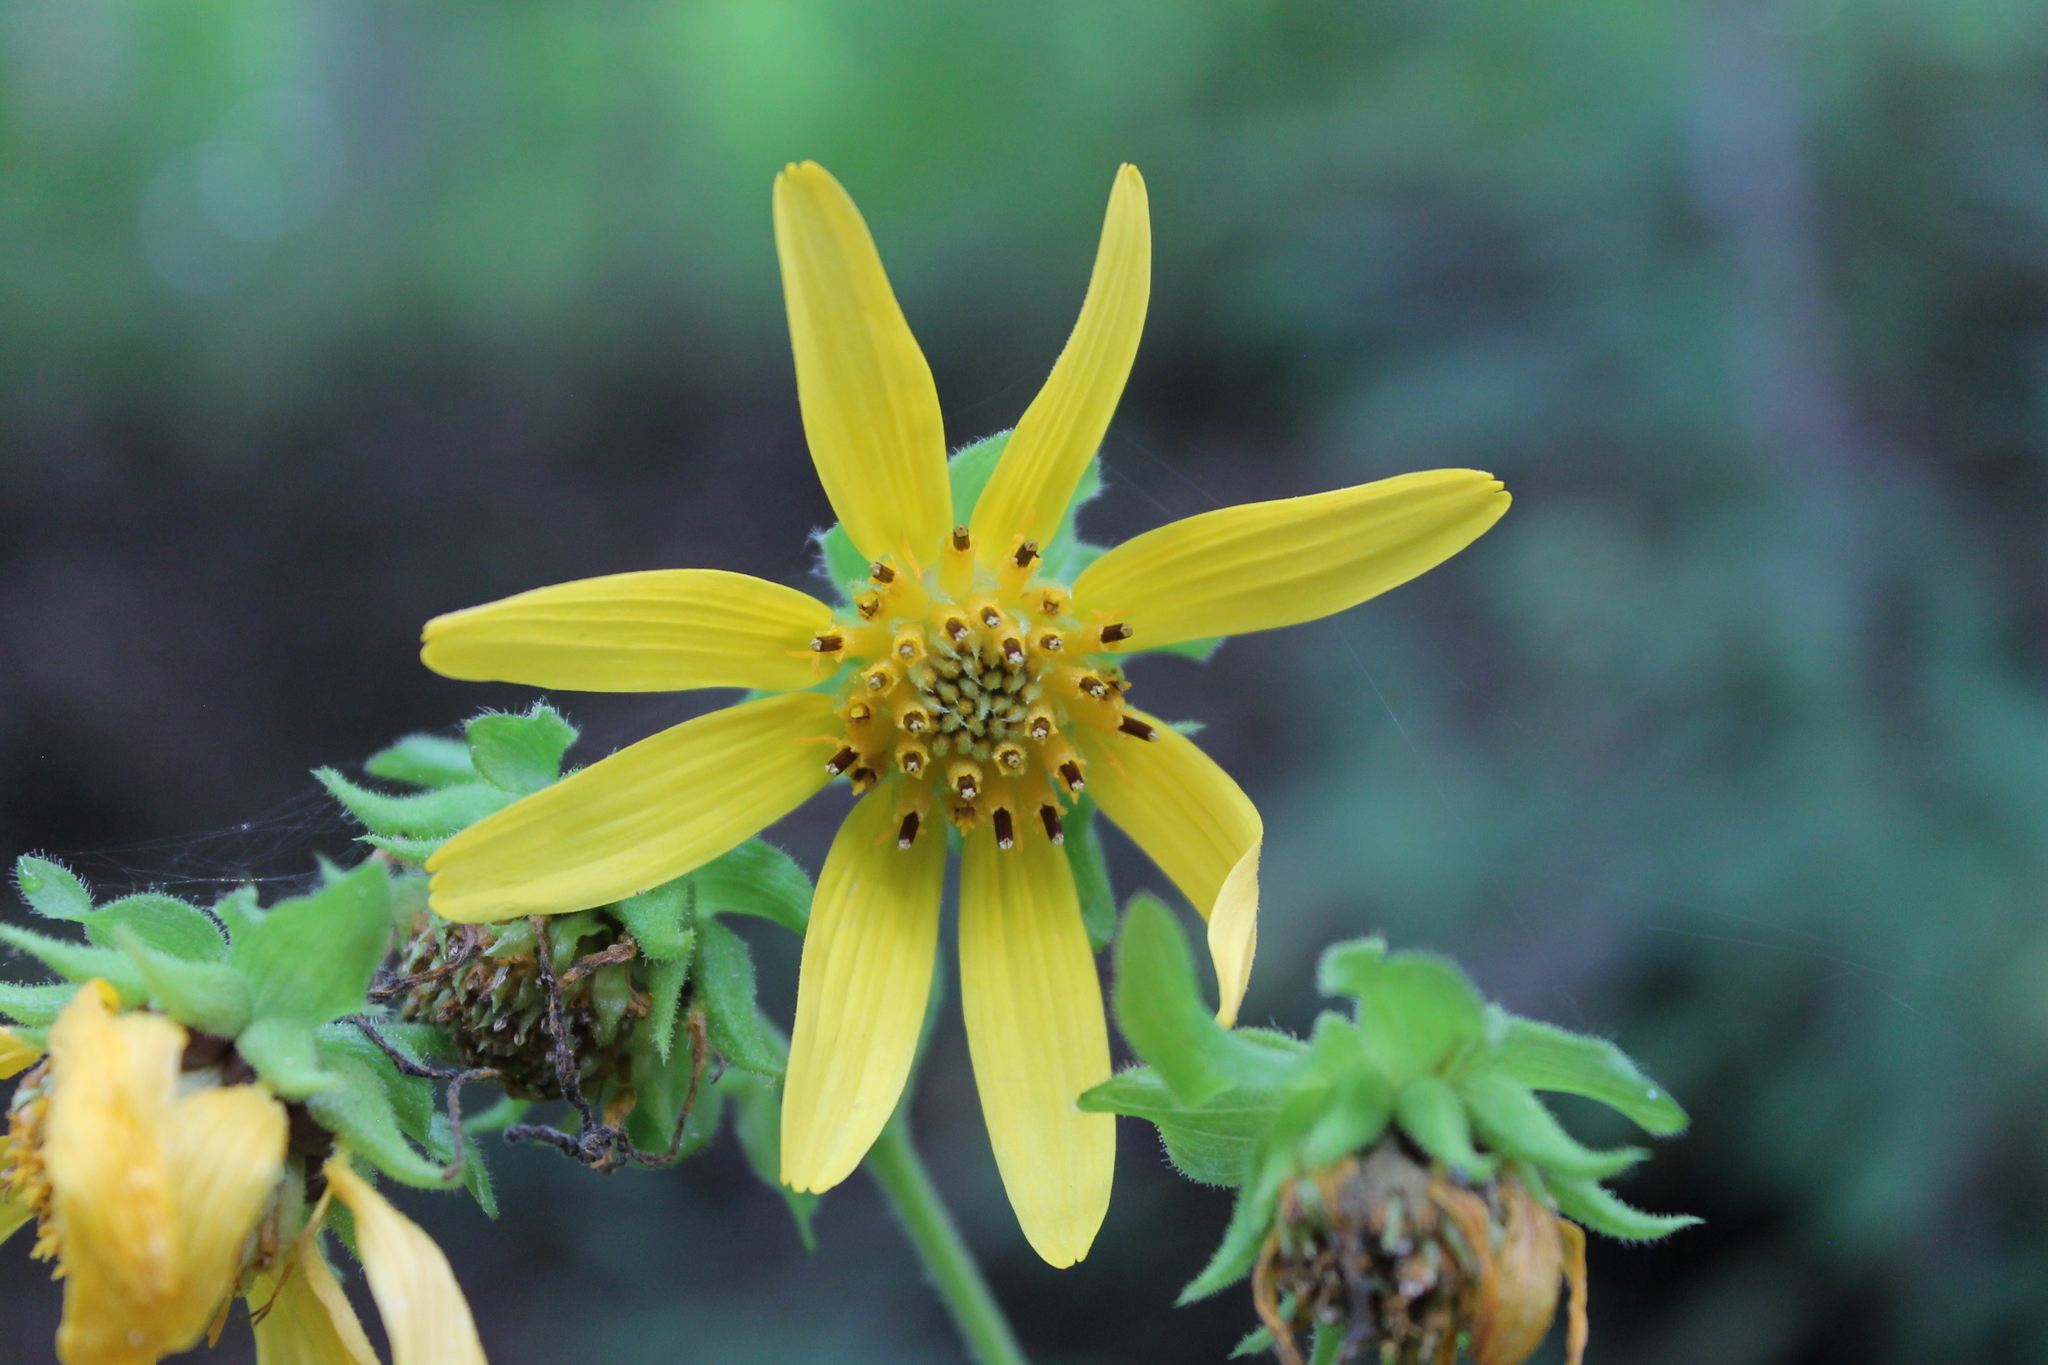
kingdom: Plantae
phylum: Tracheophyta
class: Magnoliopsida
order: Asterales
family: Asteraceae
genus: Smallanthus
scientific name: Smallanthus uvedalia
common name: Bear's-foot
